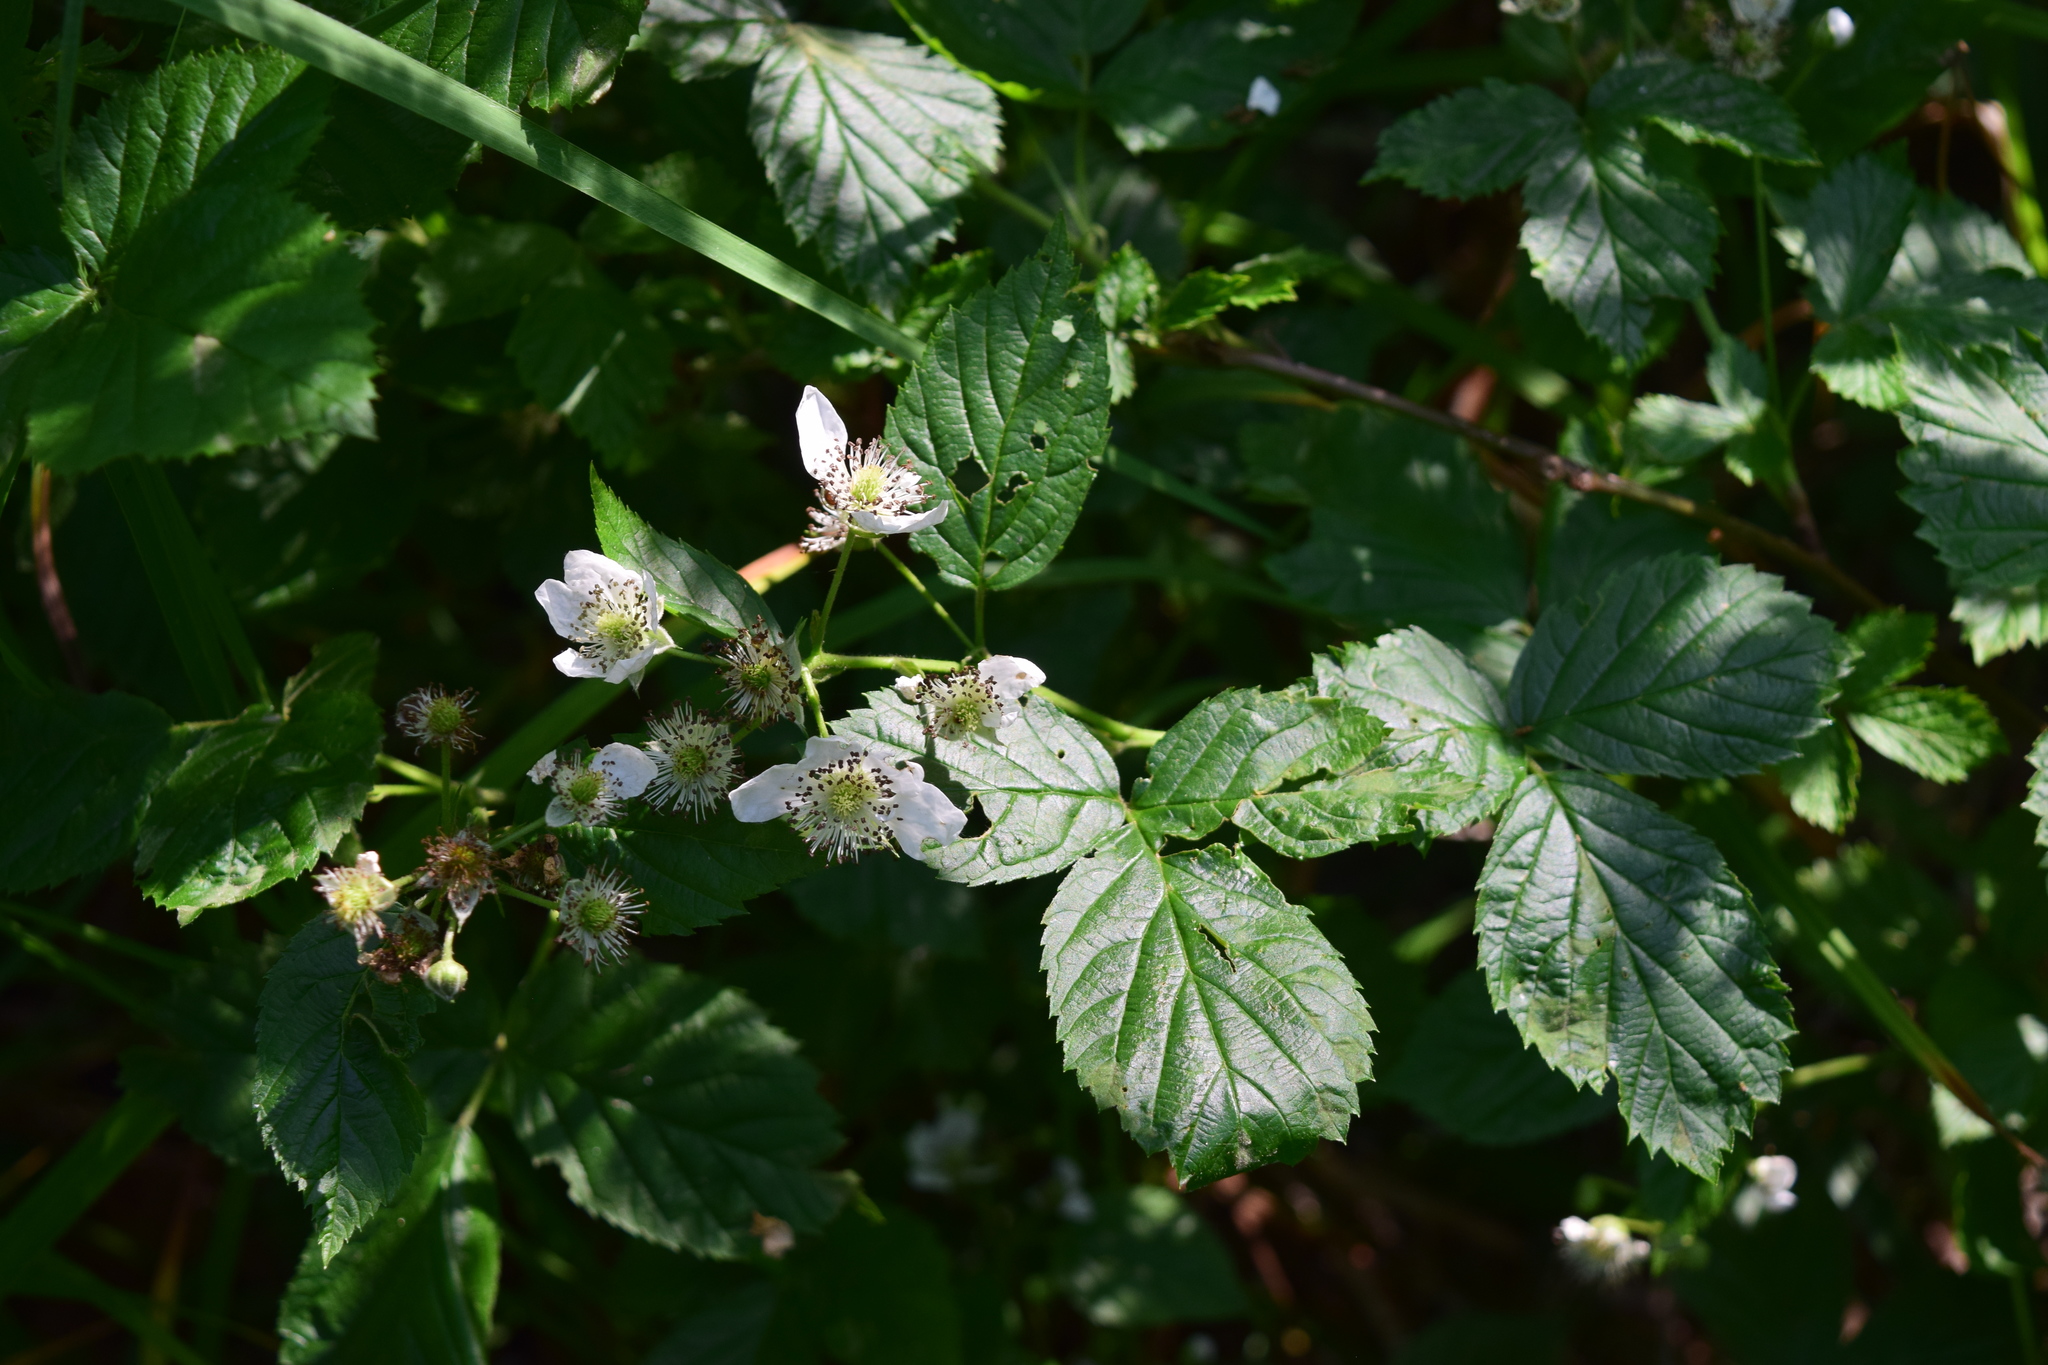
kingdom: Plantae
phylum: Tracheophyta
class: Magnoliopsida
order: Rosales
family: Rosaceae
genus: Rubus
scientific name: Rubus polonicus
